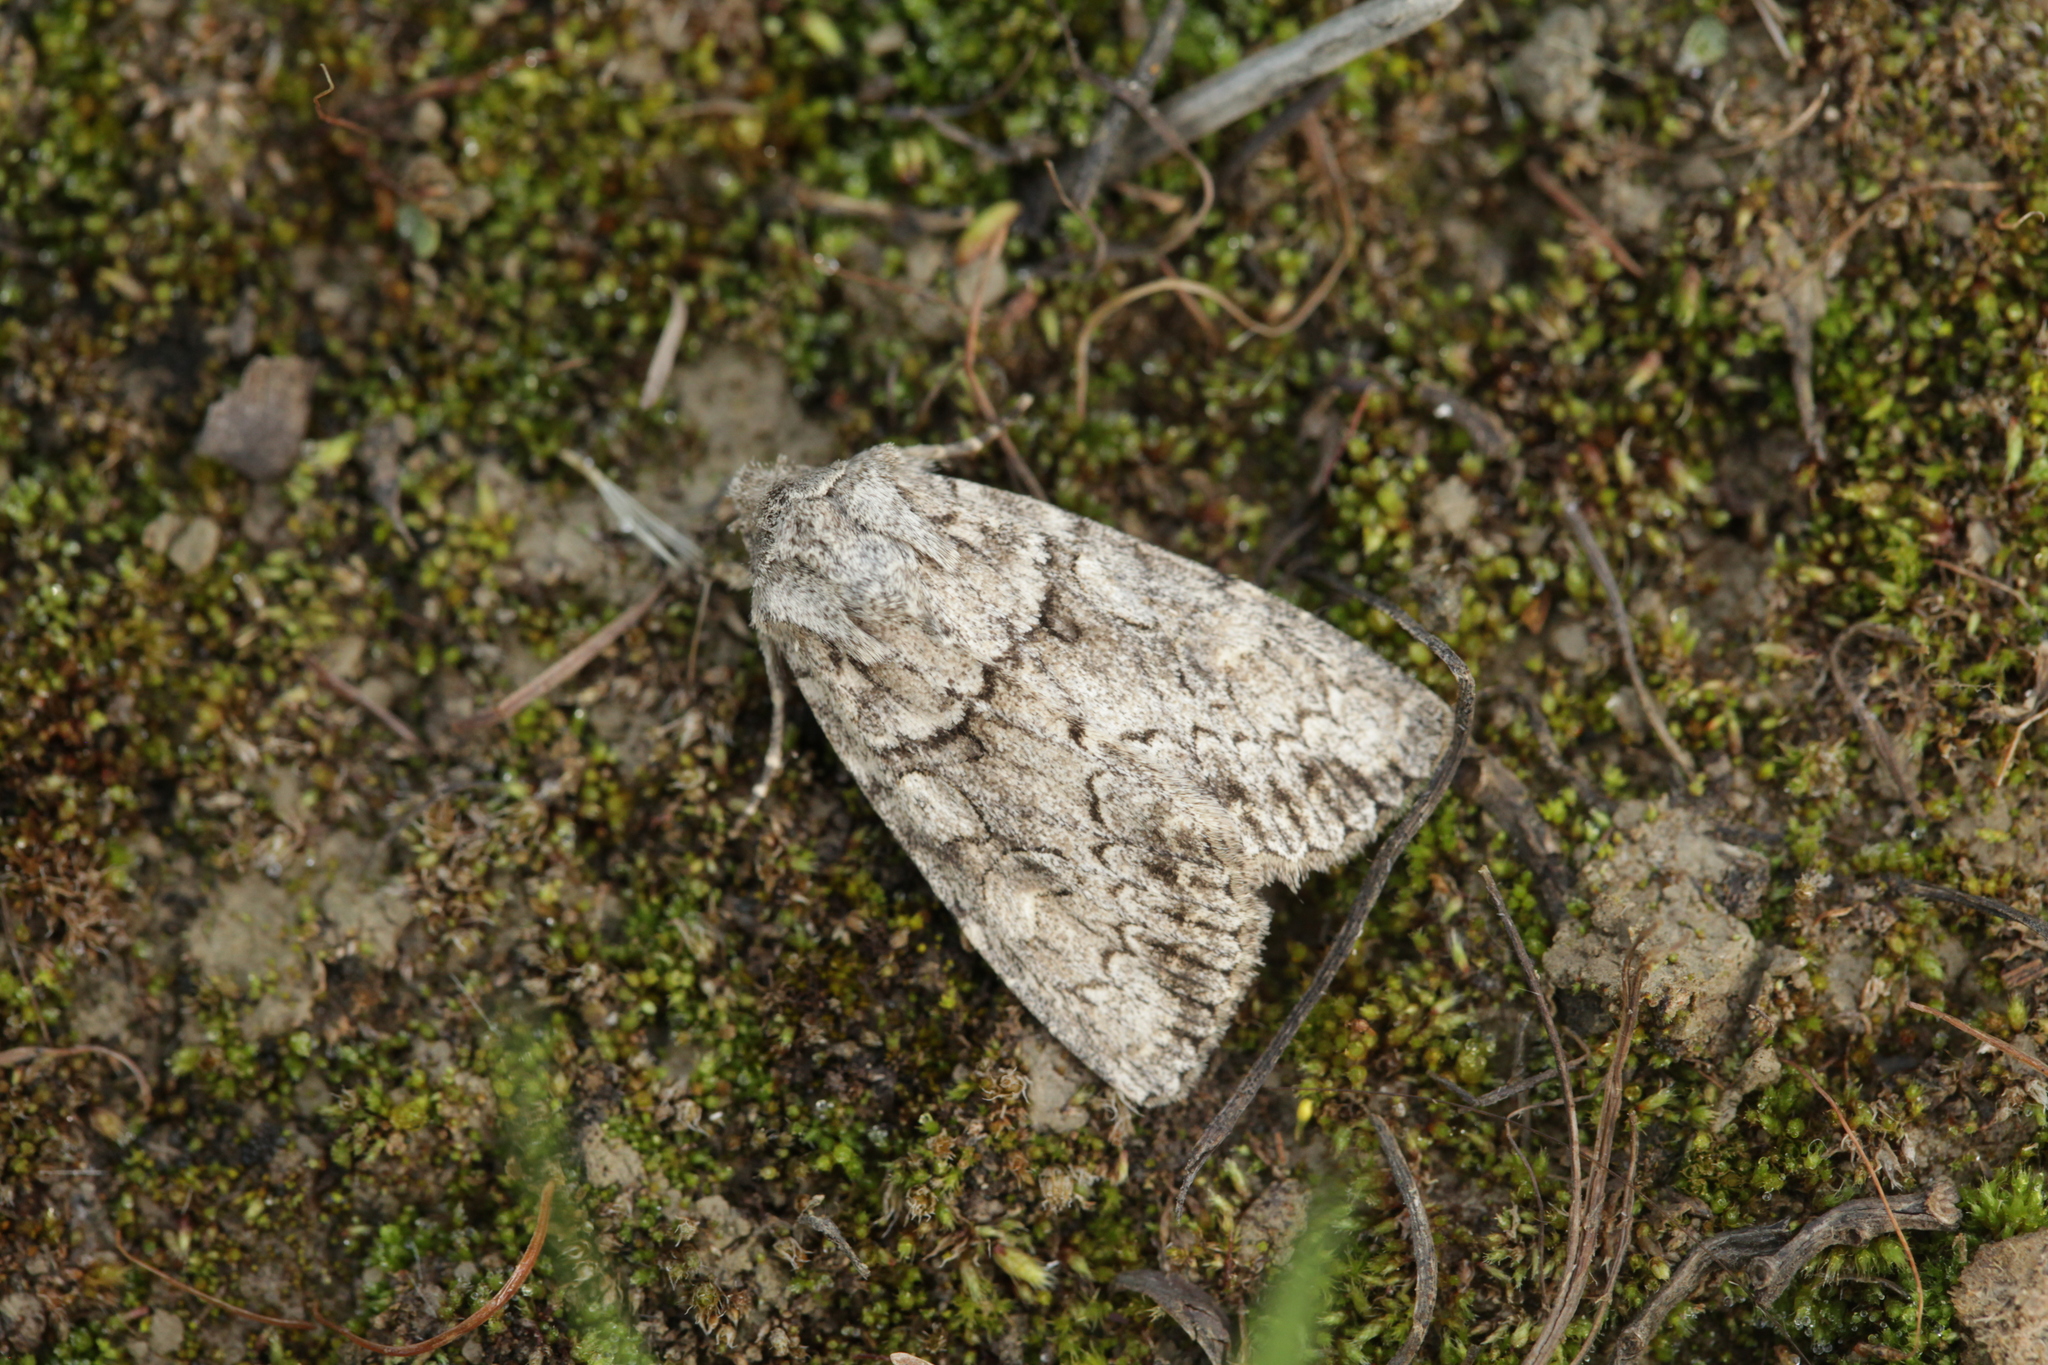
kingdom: Animalia
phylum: Arthropoda
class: Insecta
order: Lepidoptera
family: Noctuidae
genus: Parvispinia
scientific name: Parvispinia
